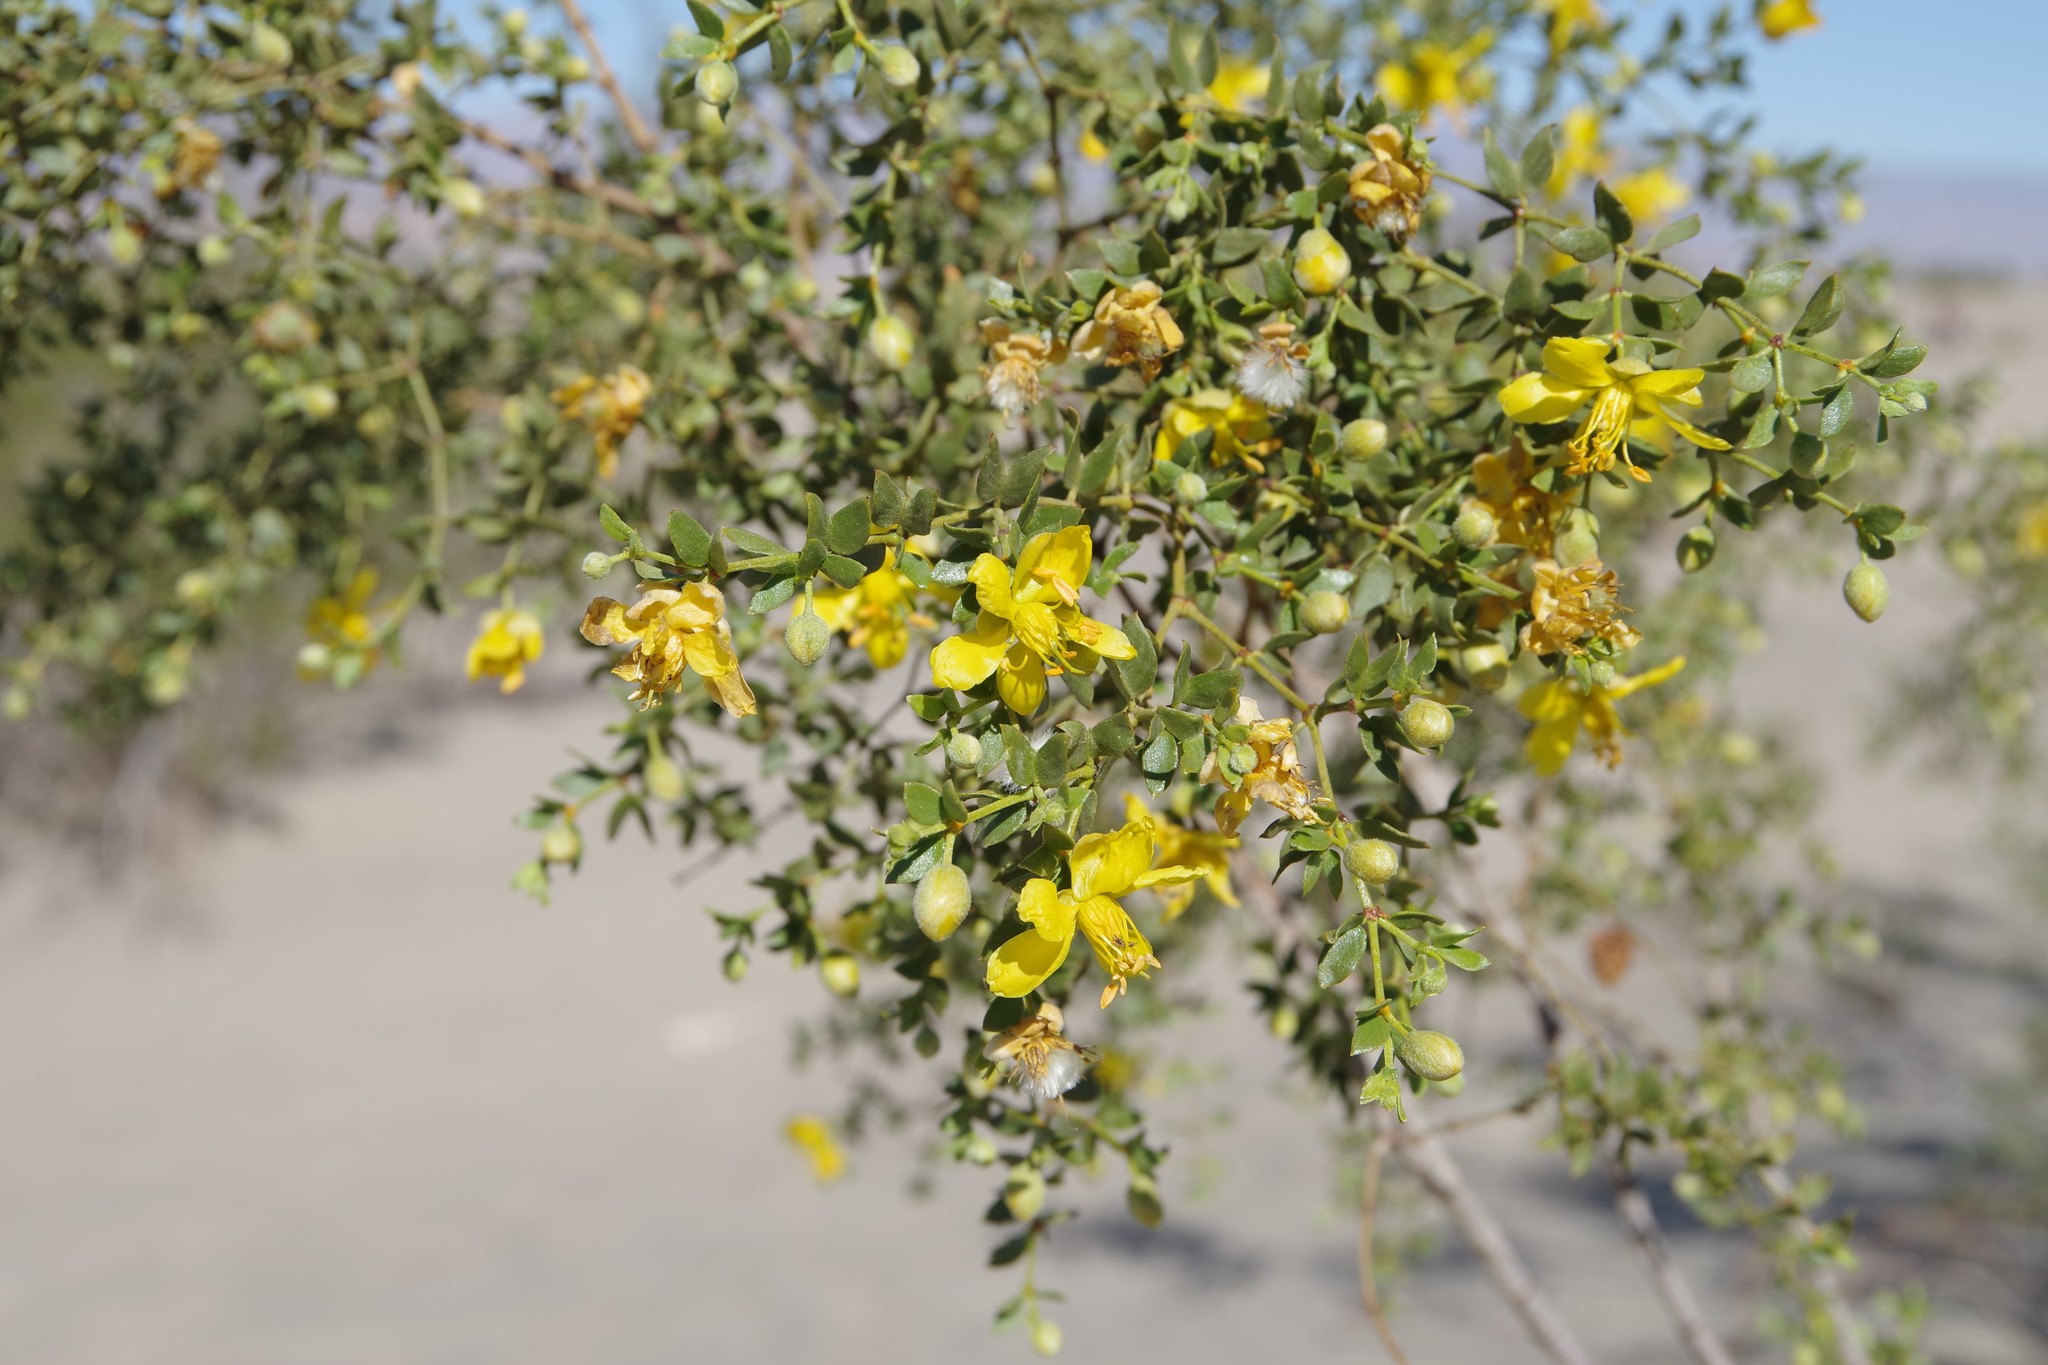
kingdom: Plantae
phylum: Tracheophyta
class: Magnoliopsida
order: Zygophyllales
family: Zygophyllaceae
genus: Larrea
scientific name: Larrea tridentata
